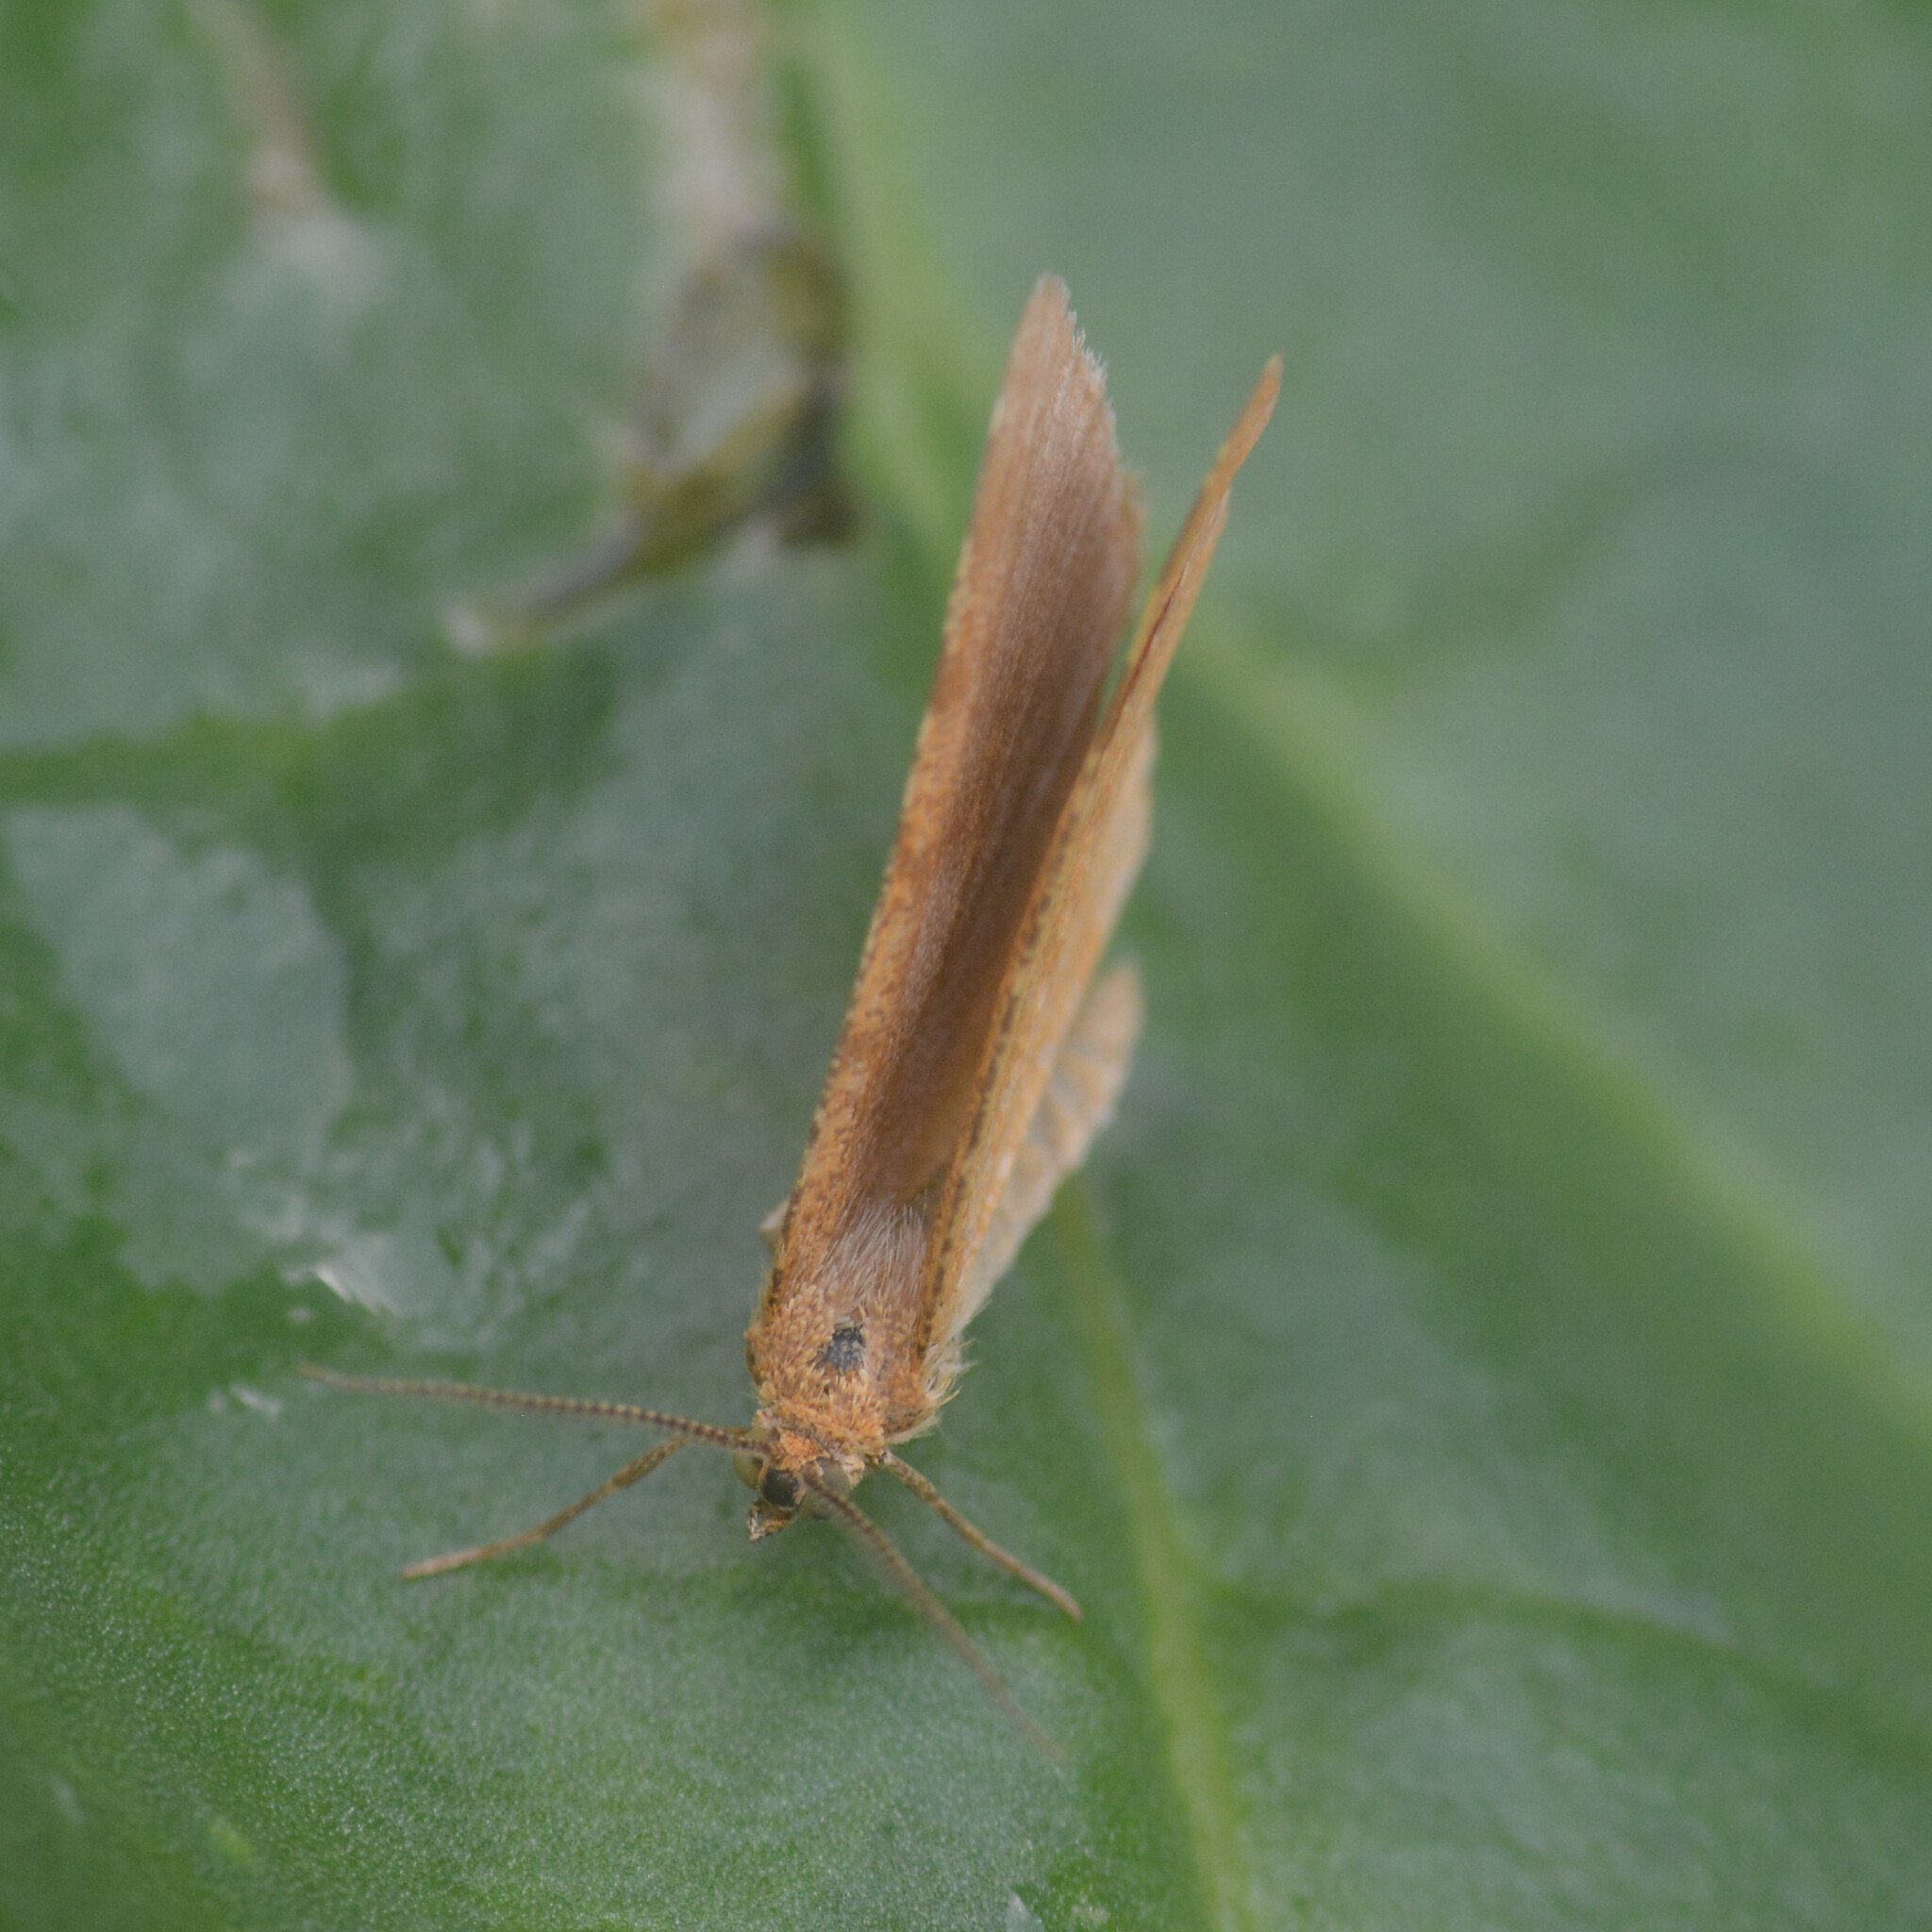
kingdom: Animalia
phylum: Arthropoda
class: Insecta
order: Lepidoptera
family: Geometridae
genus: Macaria
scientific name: Macaria brunneata
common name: Rannoch looper
